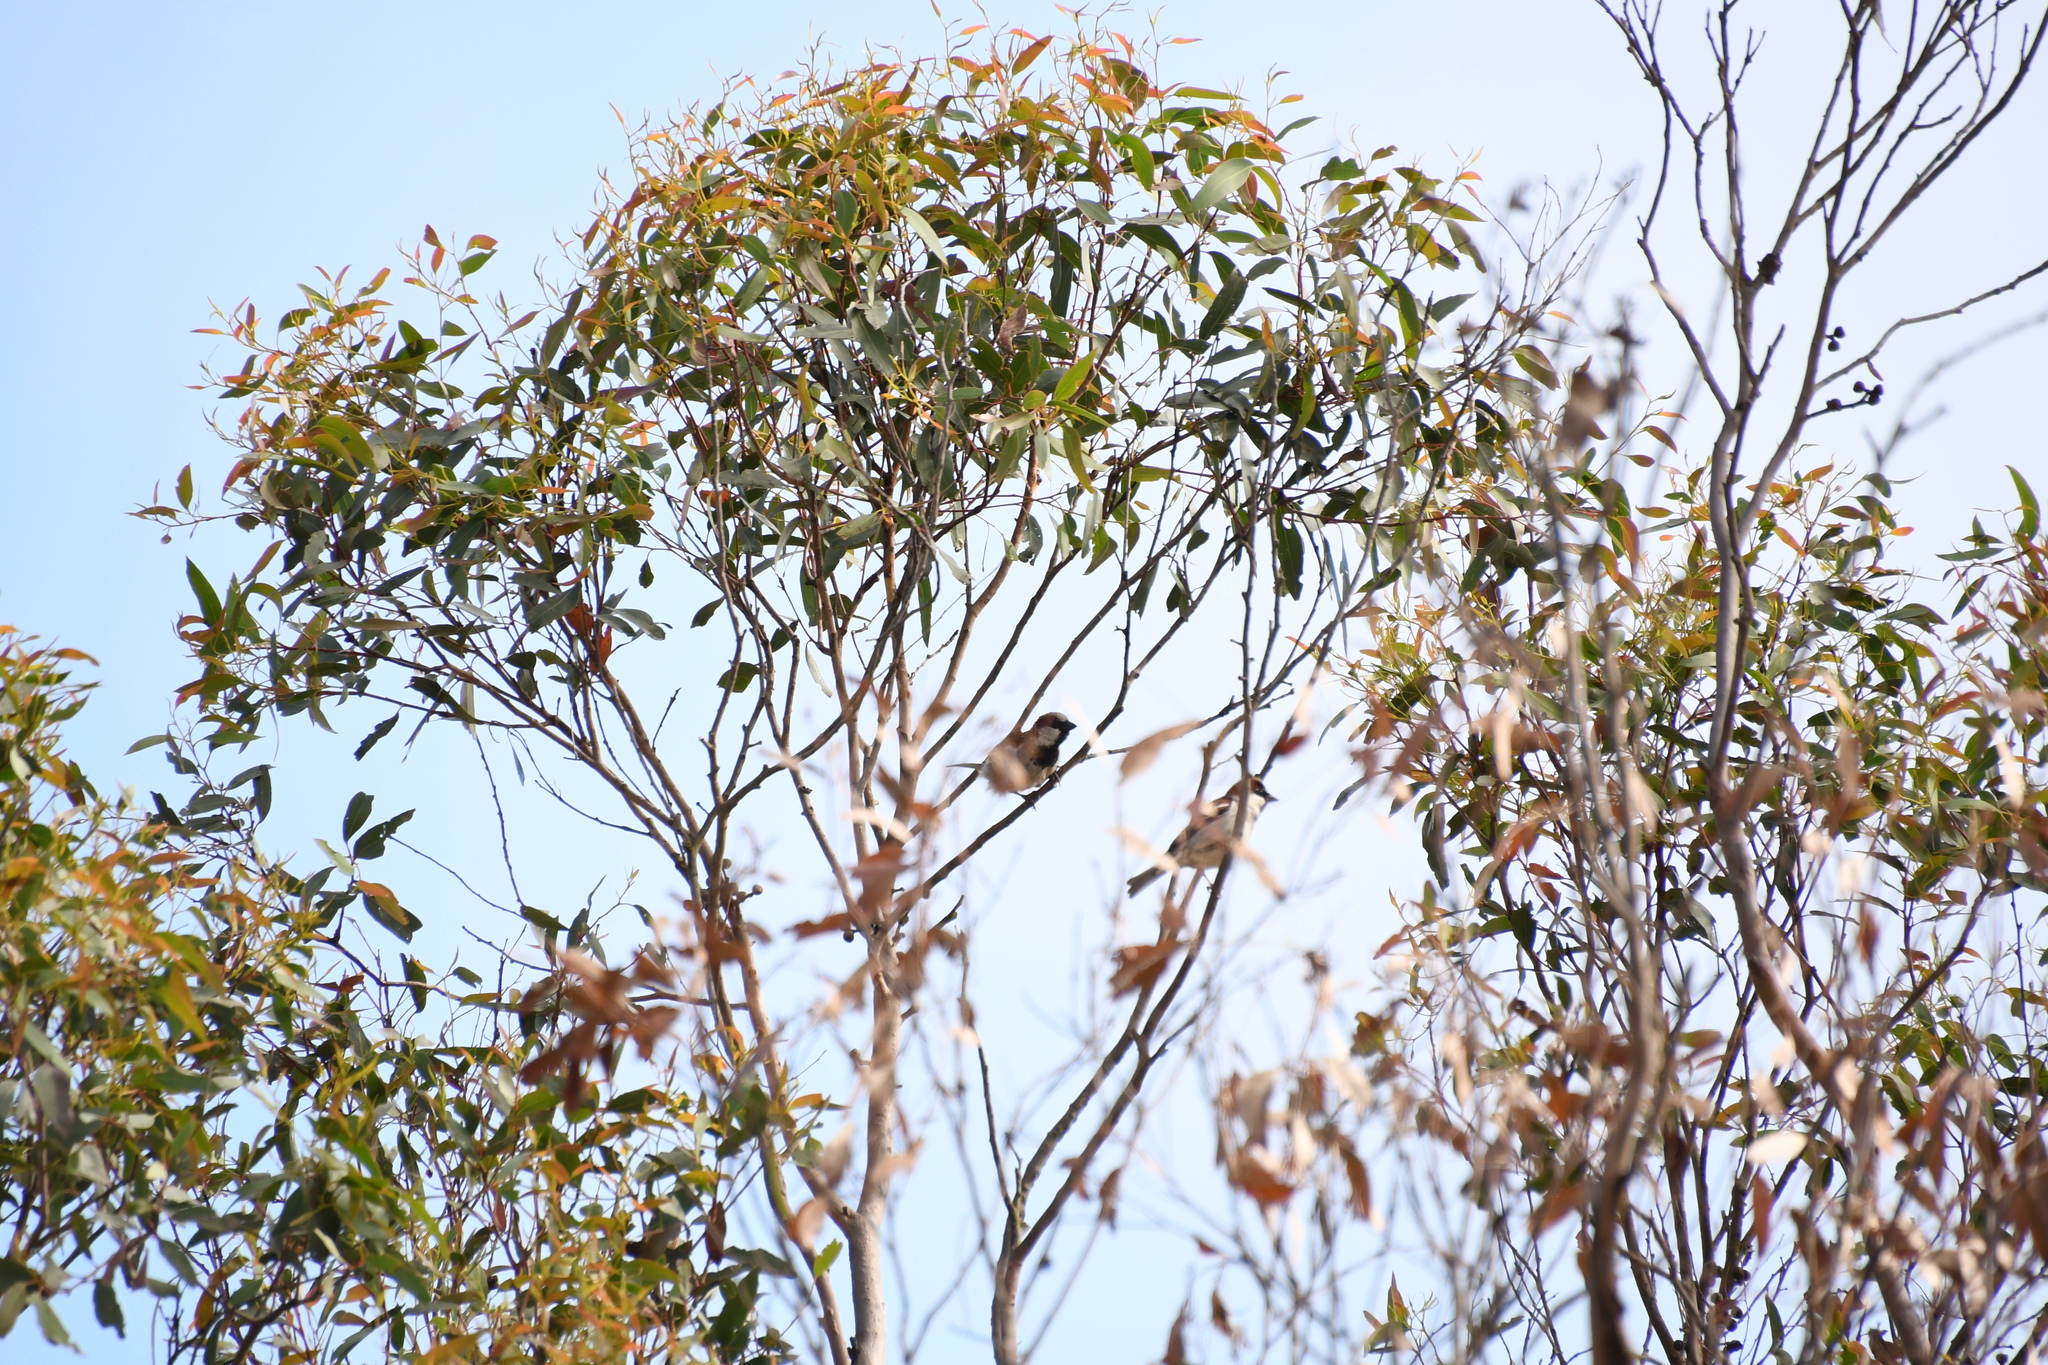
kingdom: Animalia
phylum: Chordata
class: Aves
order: Passeriformes
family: Passeridae
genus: Passer
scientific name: Passer domesticus
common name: House sparrow
